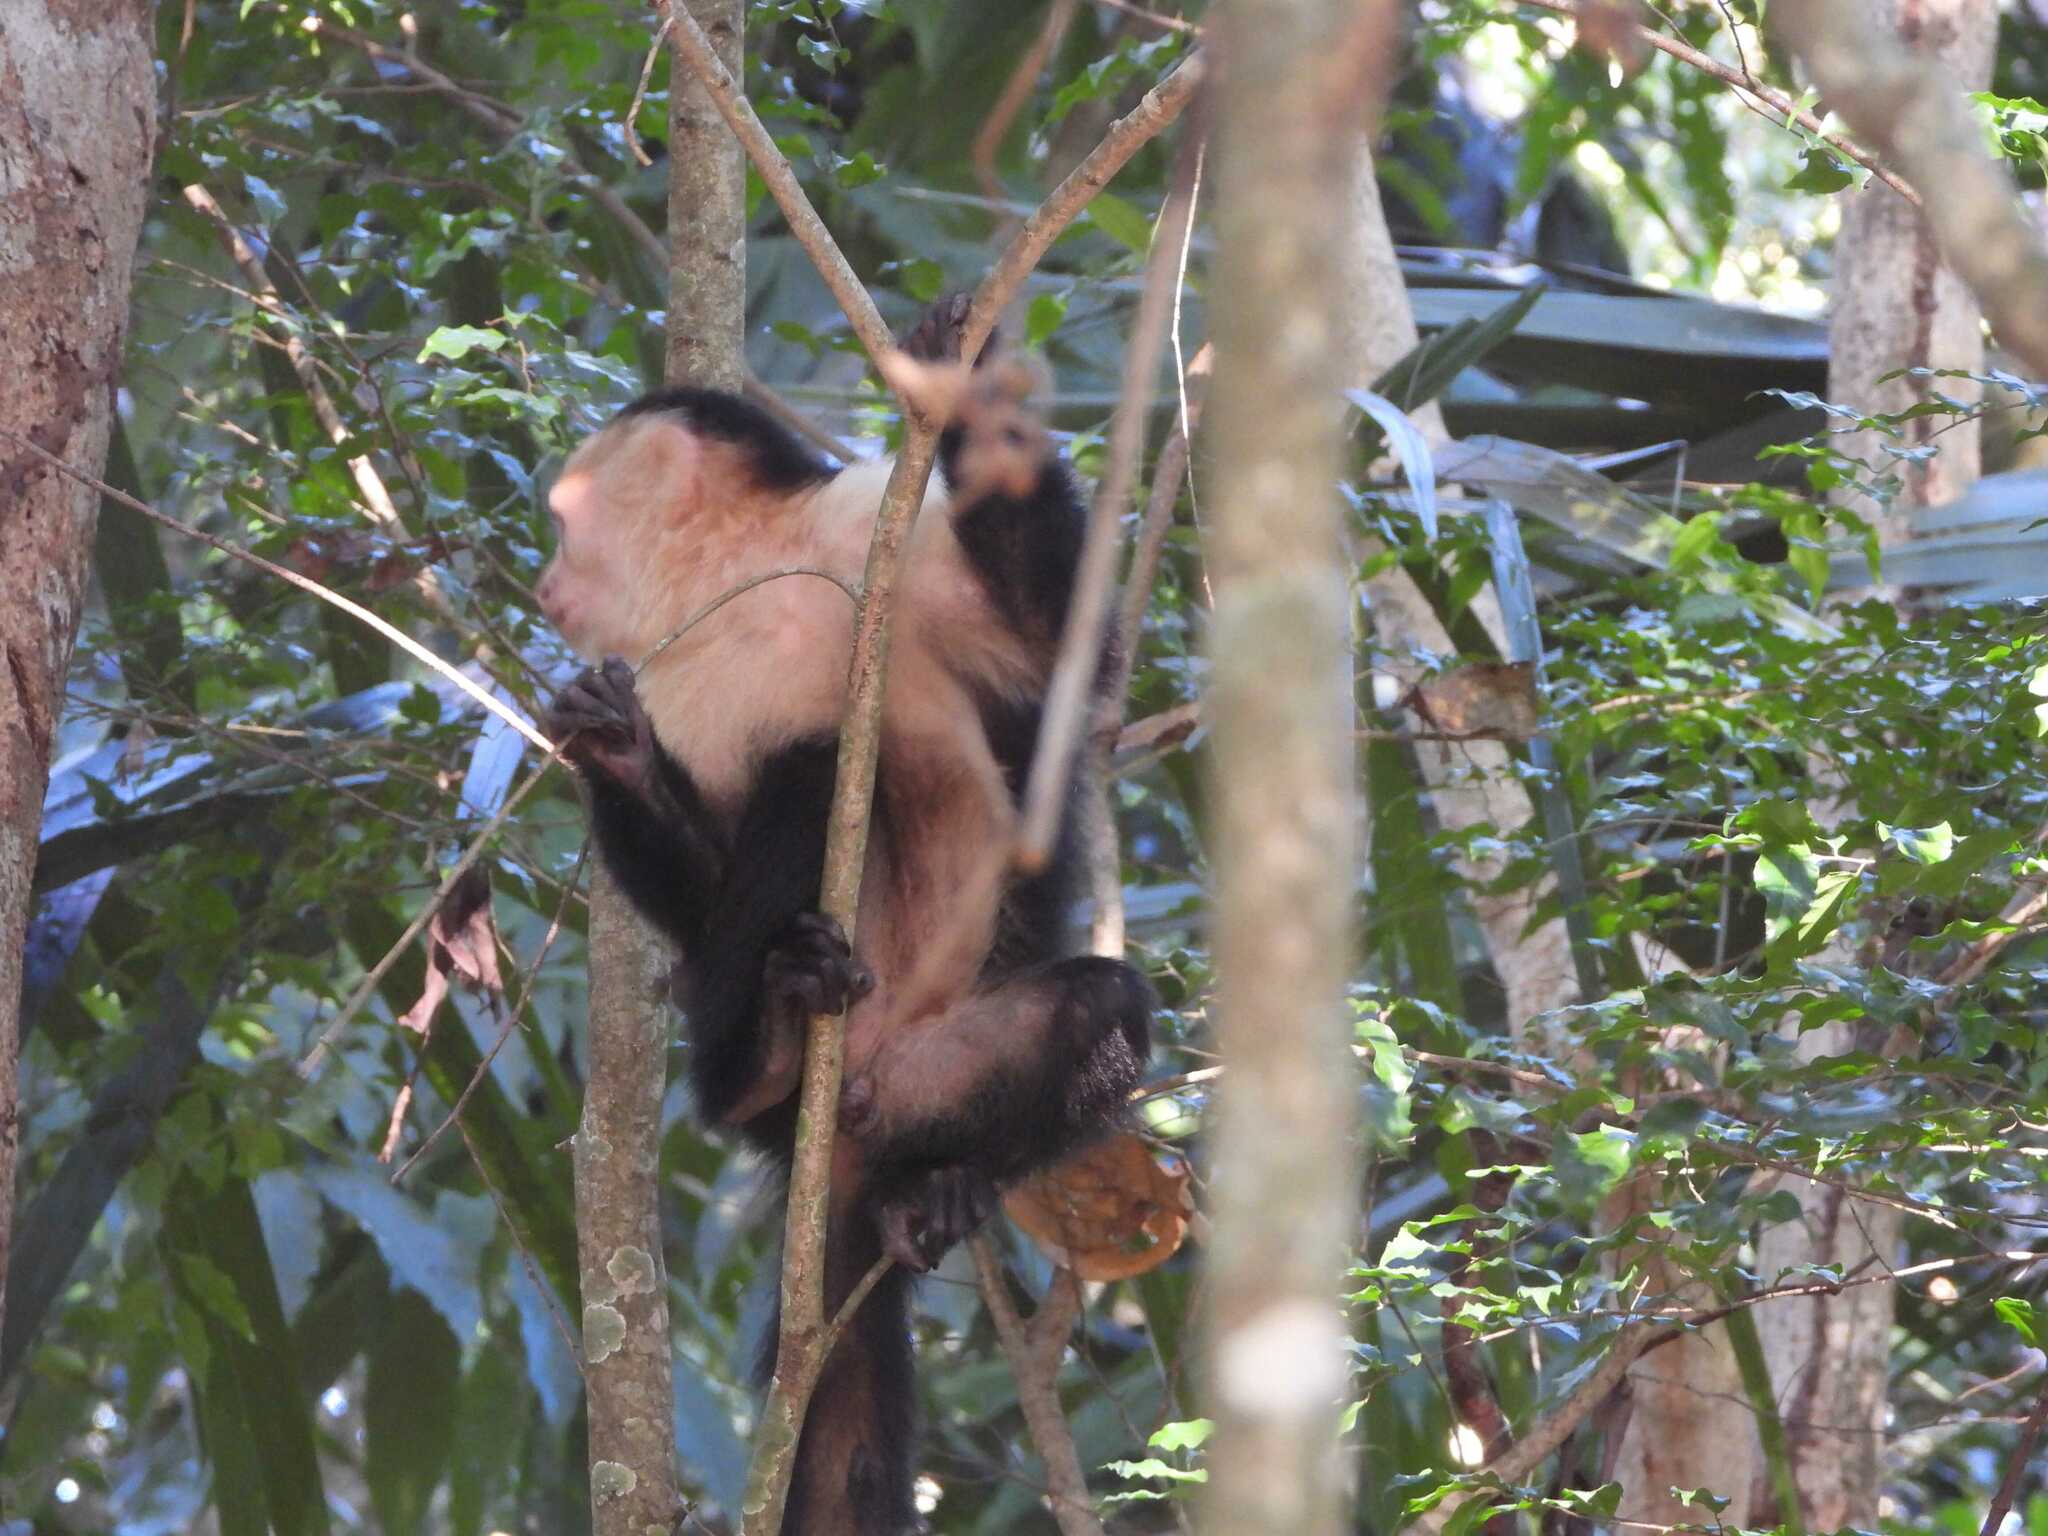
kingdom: Animalia
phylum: Chordata
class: Mammalia
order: Primates
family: Cebidae
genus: Cebus
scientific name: Cebus imitator
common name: Panamanian white-faced capuchin
